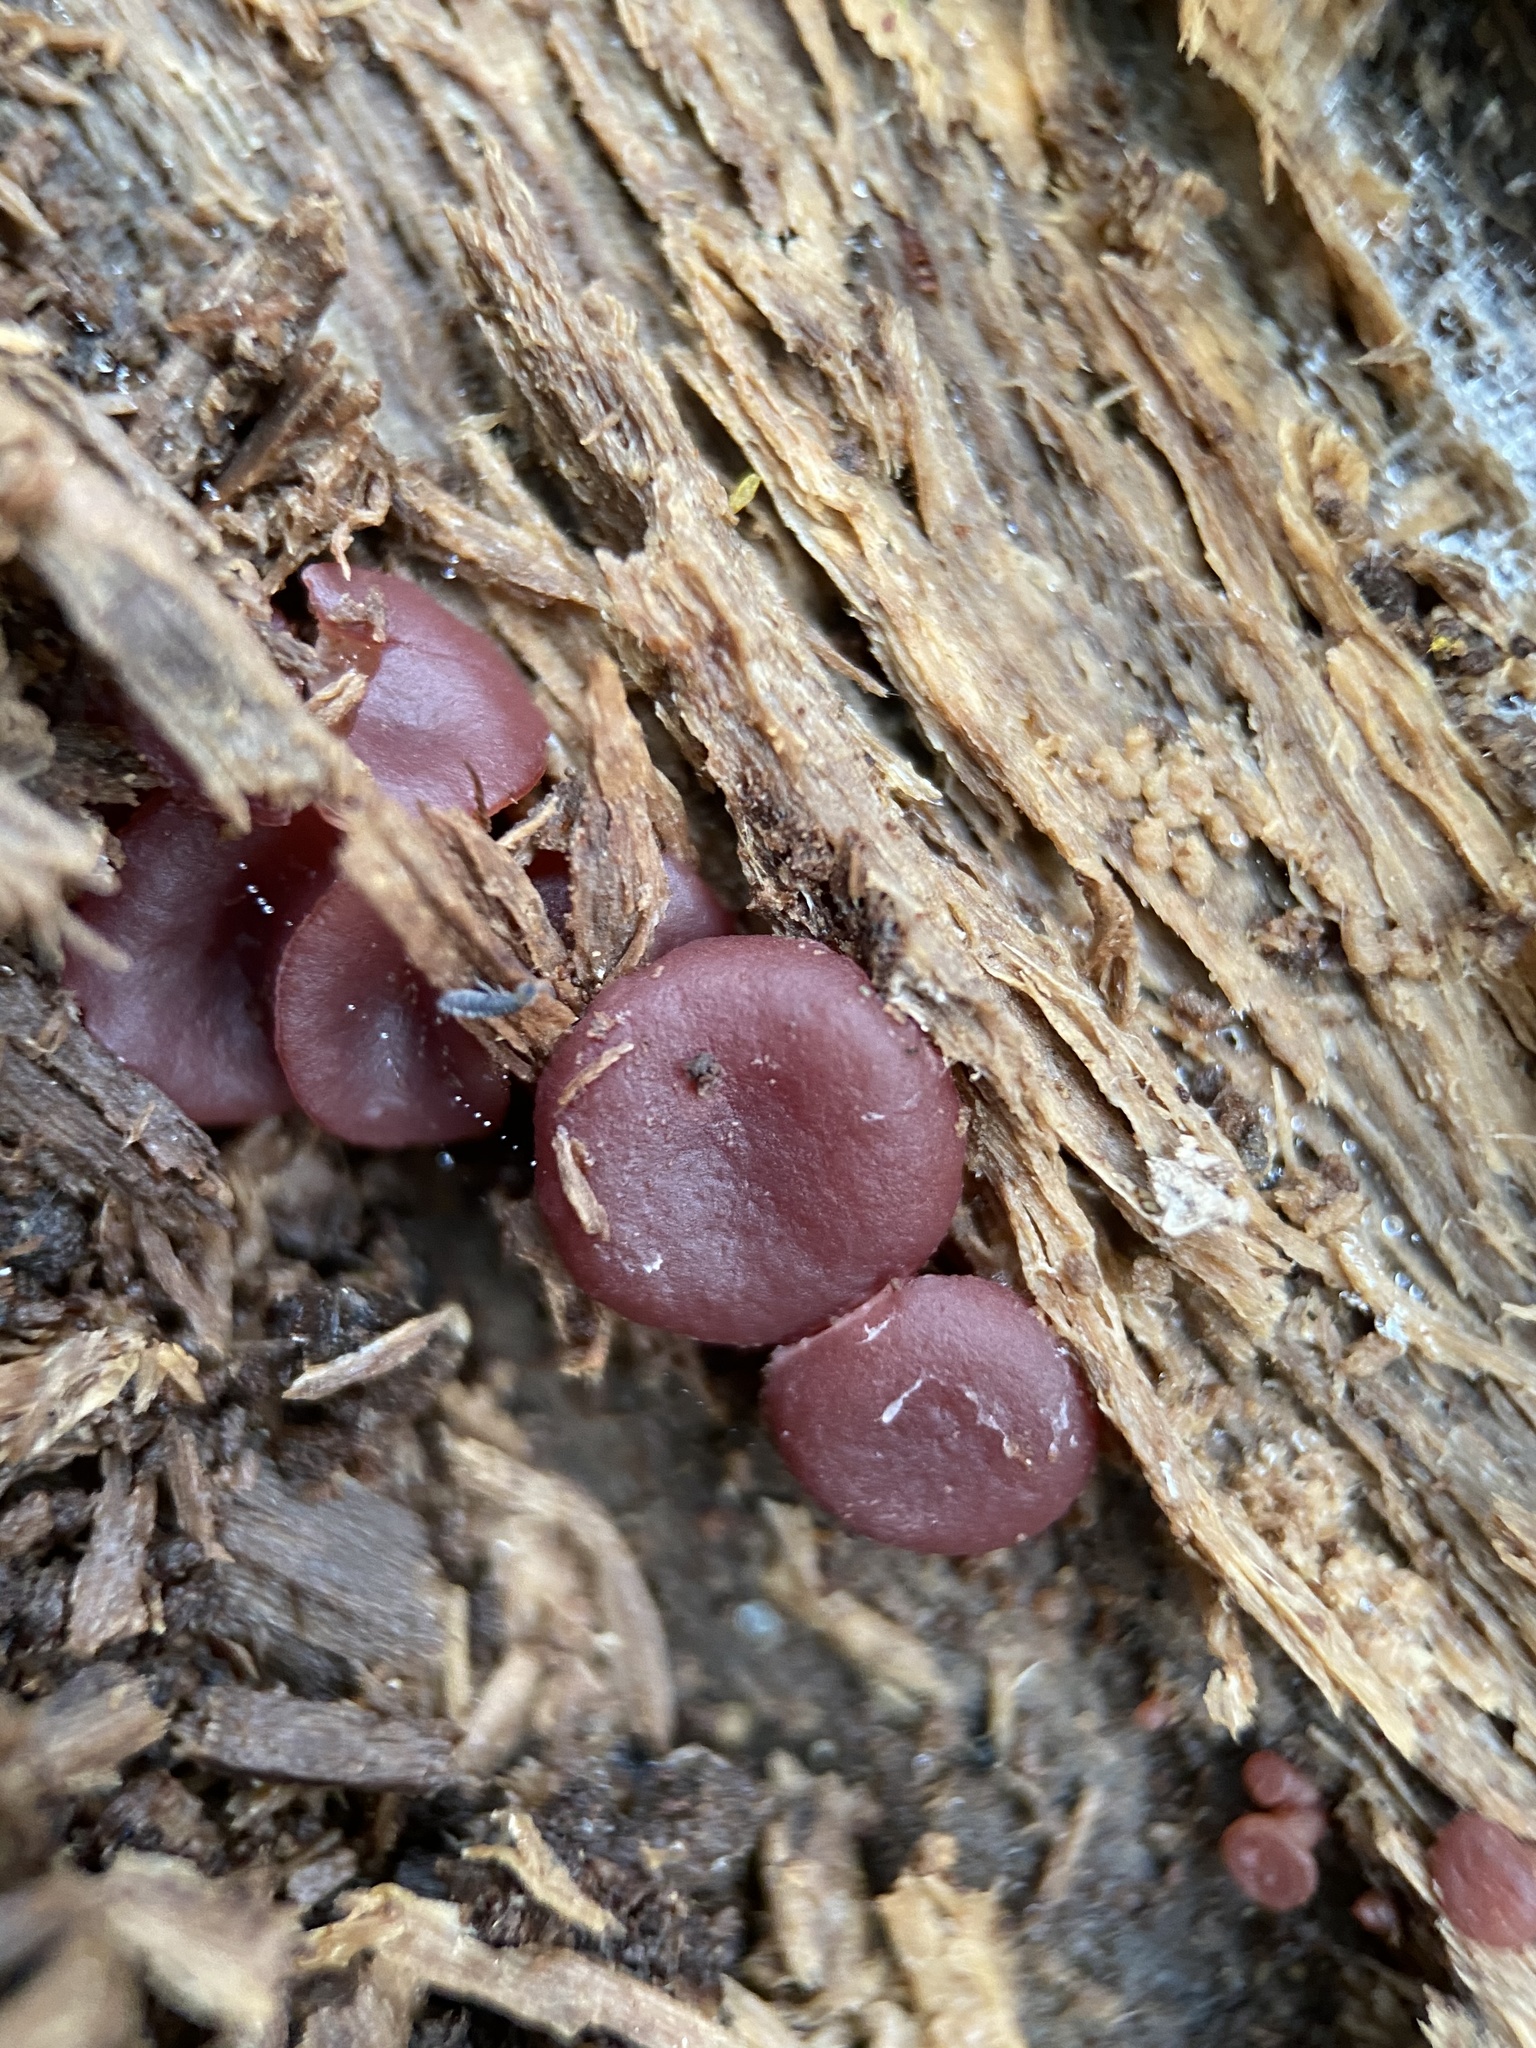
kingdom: Fungi
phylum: Ascomycota
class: Leotiomycetes
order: Helotiales
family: Gelatinodiscaceae
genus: Ascocoryne
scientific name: Ascocoryne sarcoides
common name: Purple jellydisc
